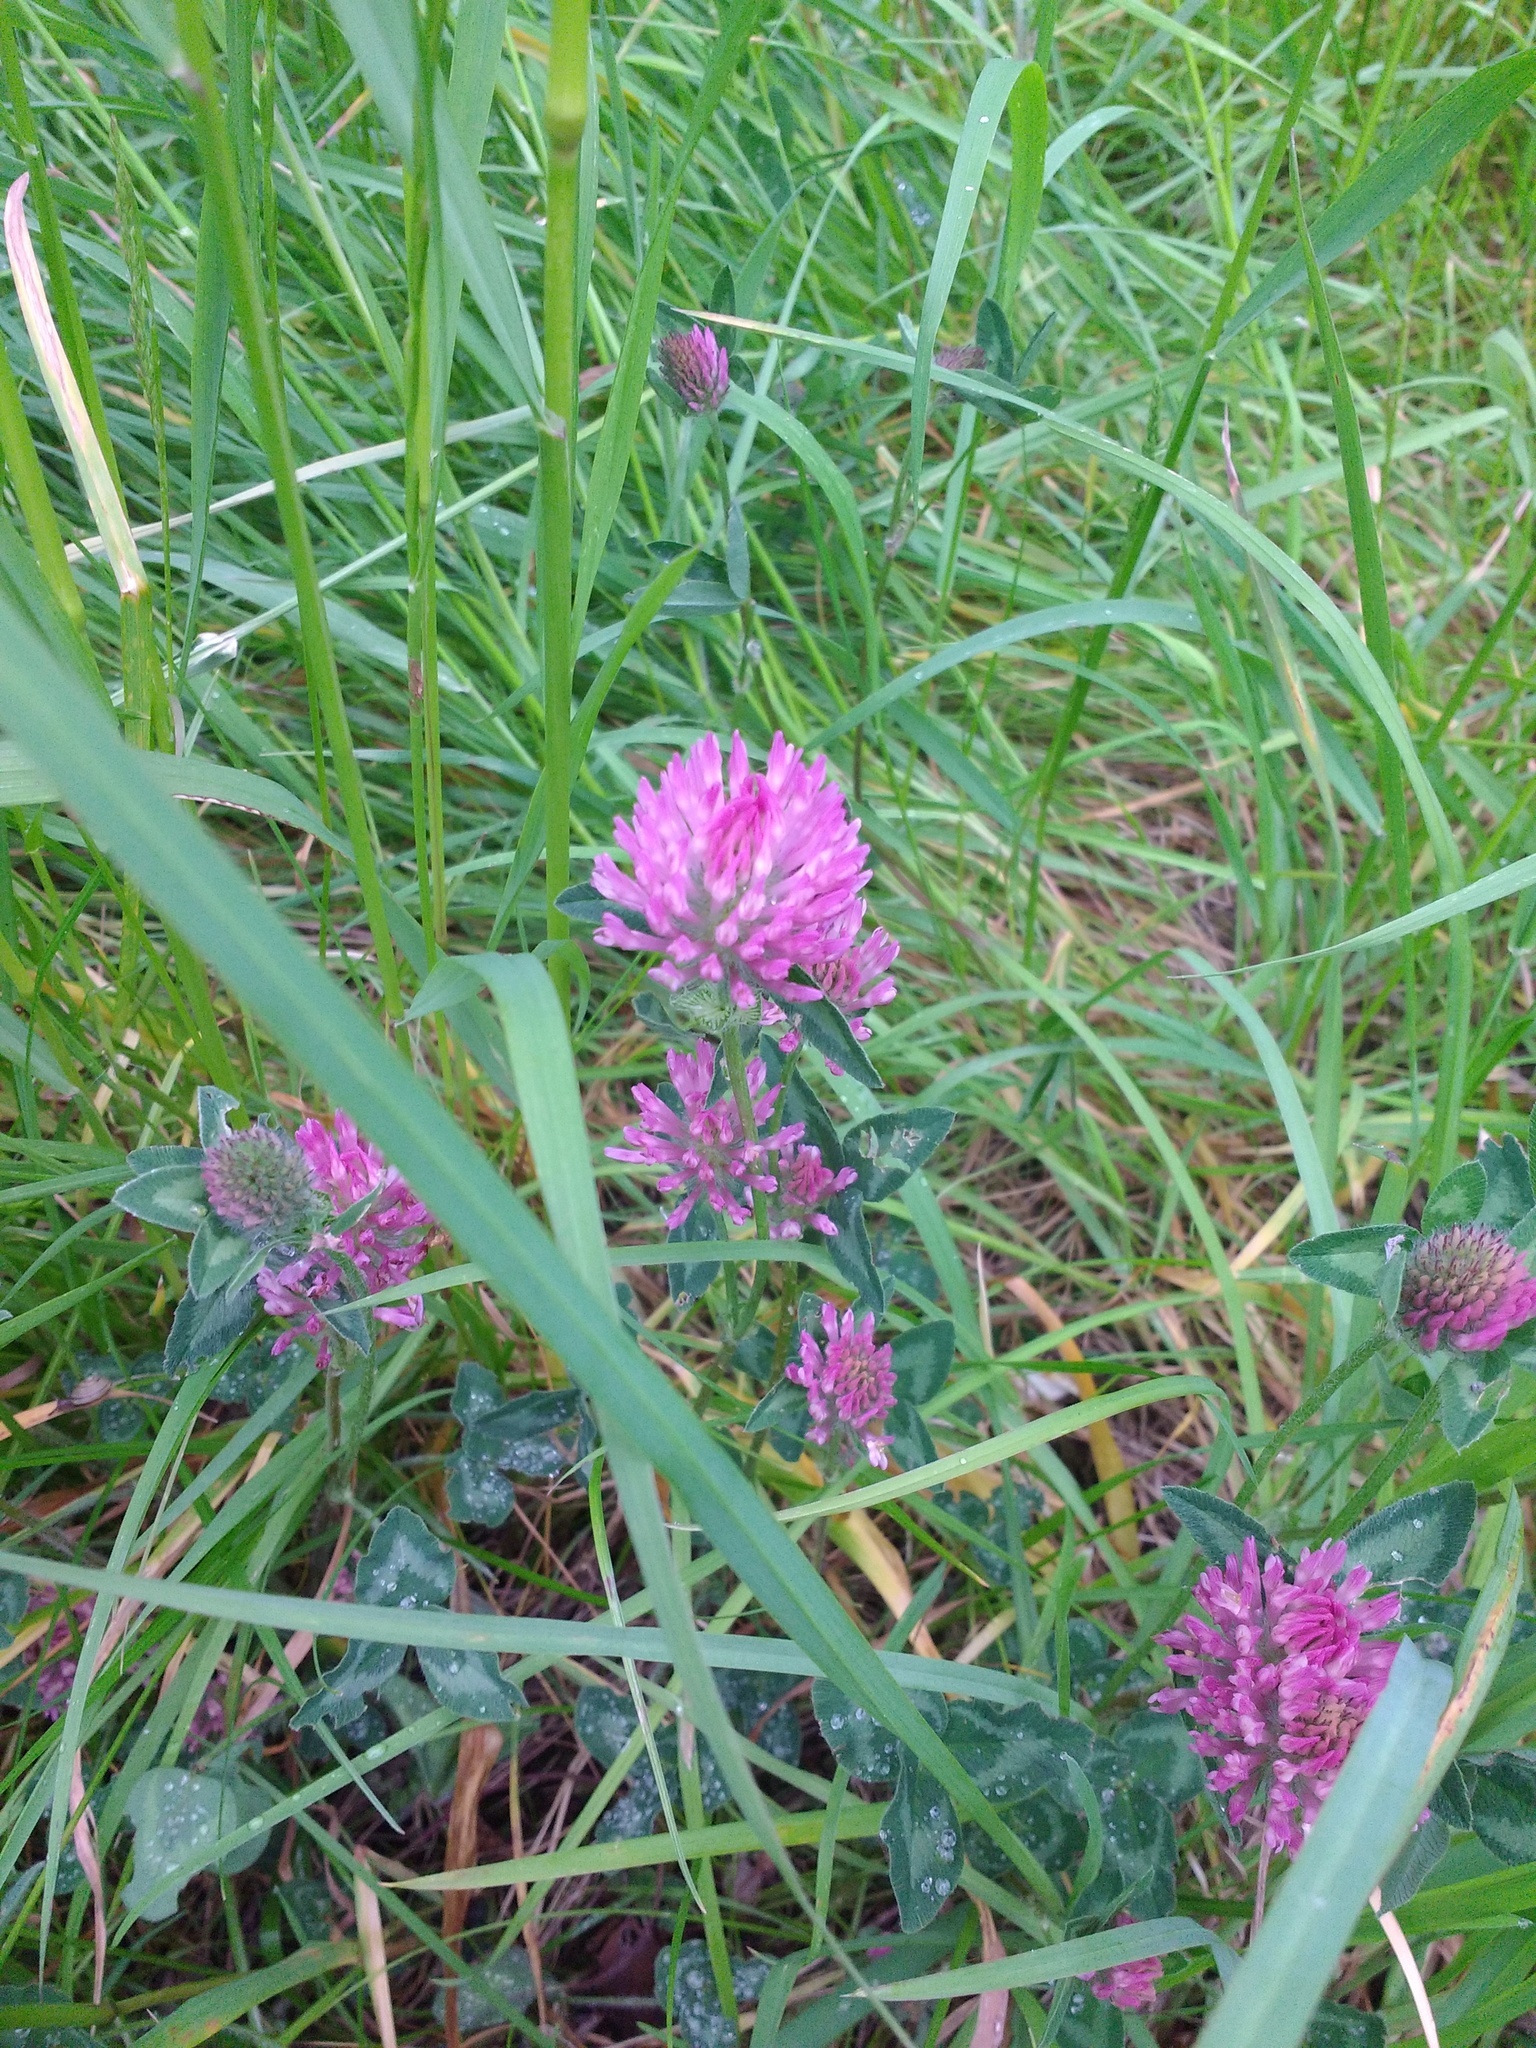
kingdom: Plantae
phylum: Tracheophyta
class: Magnoliopsida
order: Fabales
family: Fabaceae
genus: Trifolium
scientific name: Trifolium pratense
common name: Red clover
